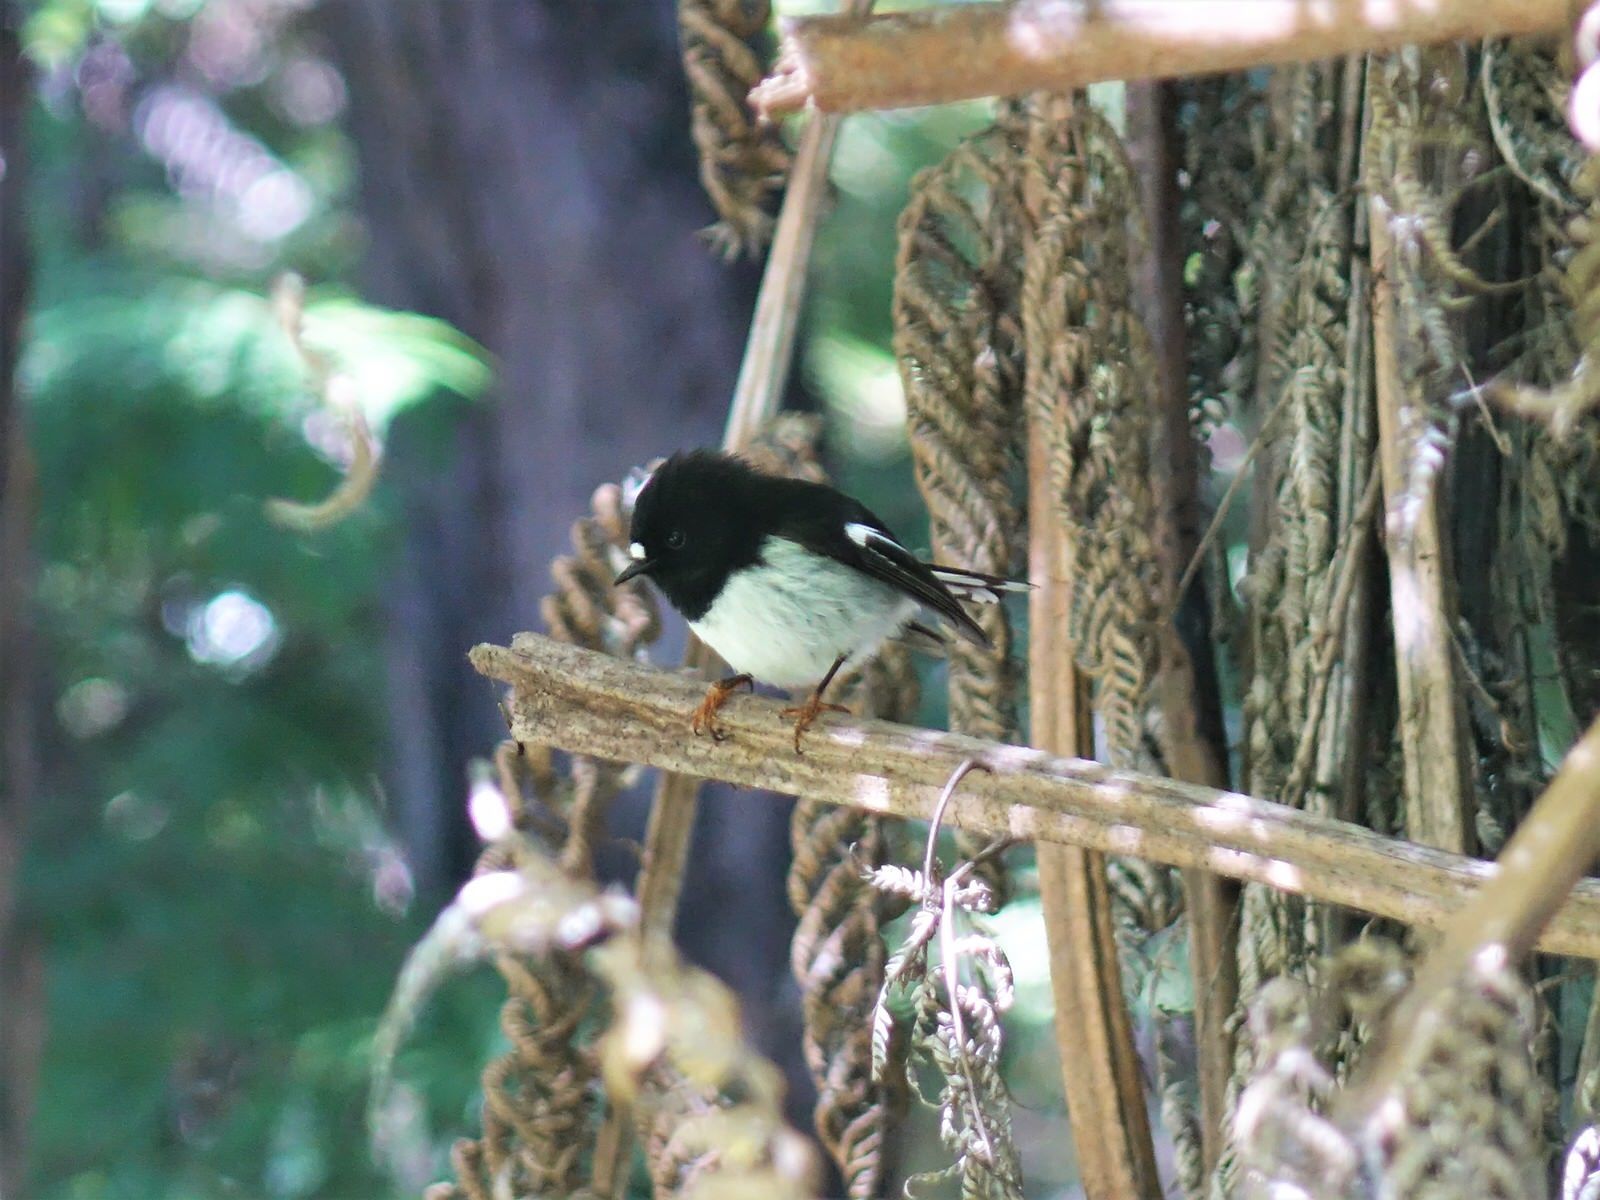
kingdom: Animalia
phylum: Chordata
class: Aves
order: Passeriformes
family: Petroicidae
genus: Petroica
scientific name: Petroica macrocephala
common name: Tomtit
